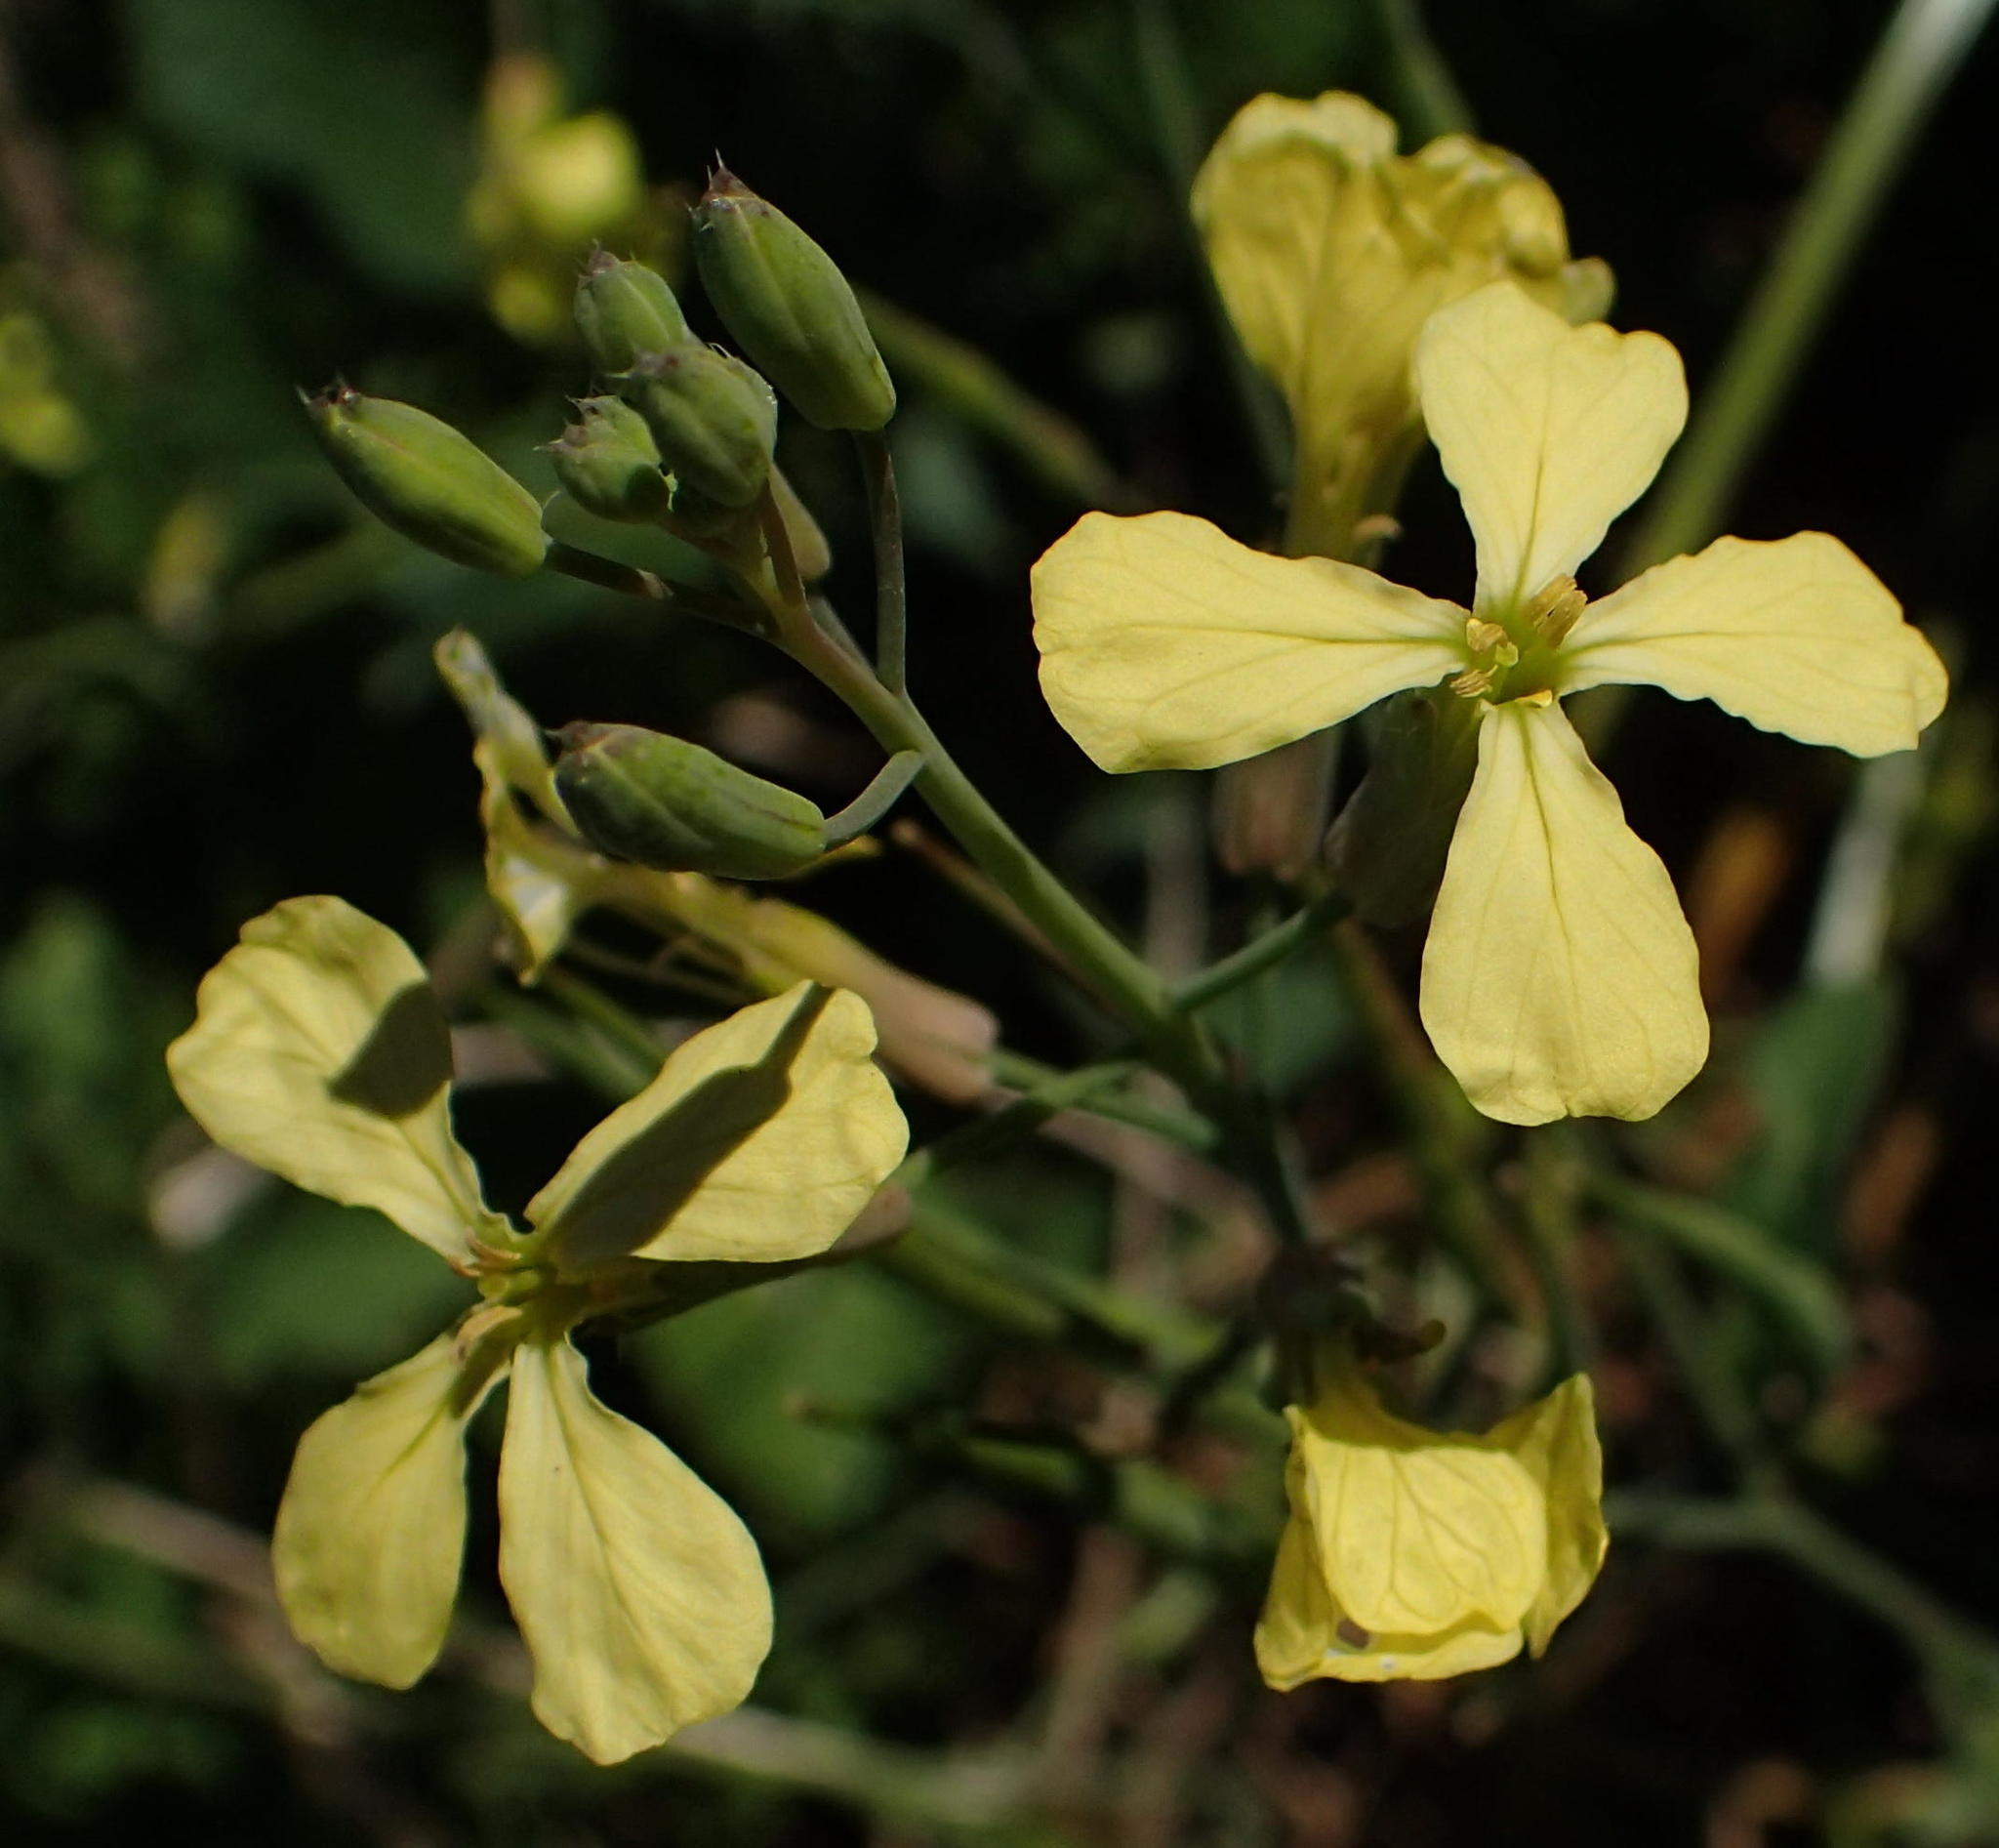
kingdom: Plantae
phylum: Tracheophyta
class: Magnoliopsida
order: Brassicales
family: Brassicaceae
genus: Raphanus
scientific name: Raphanus raphanistrum
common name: Wild radish
